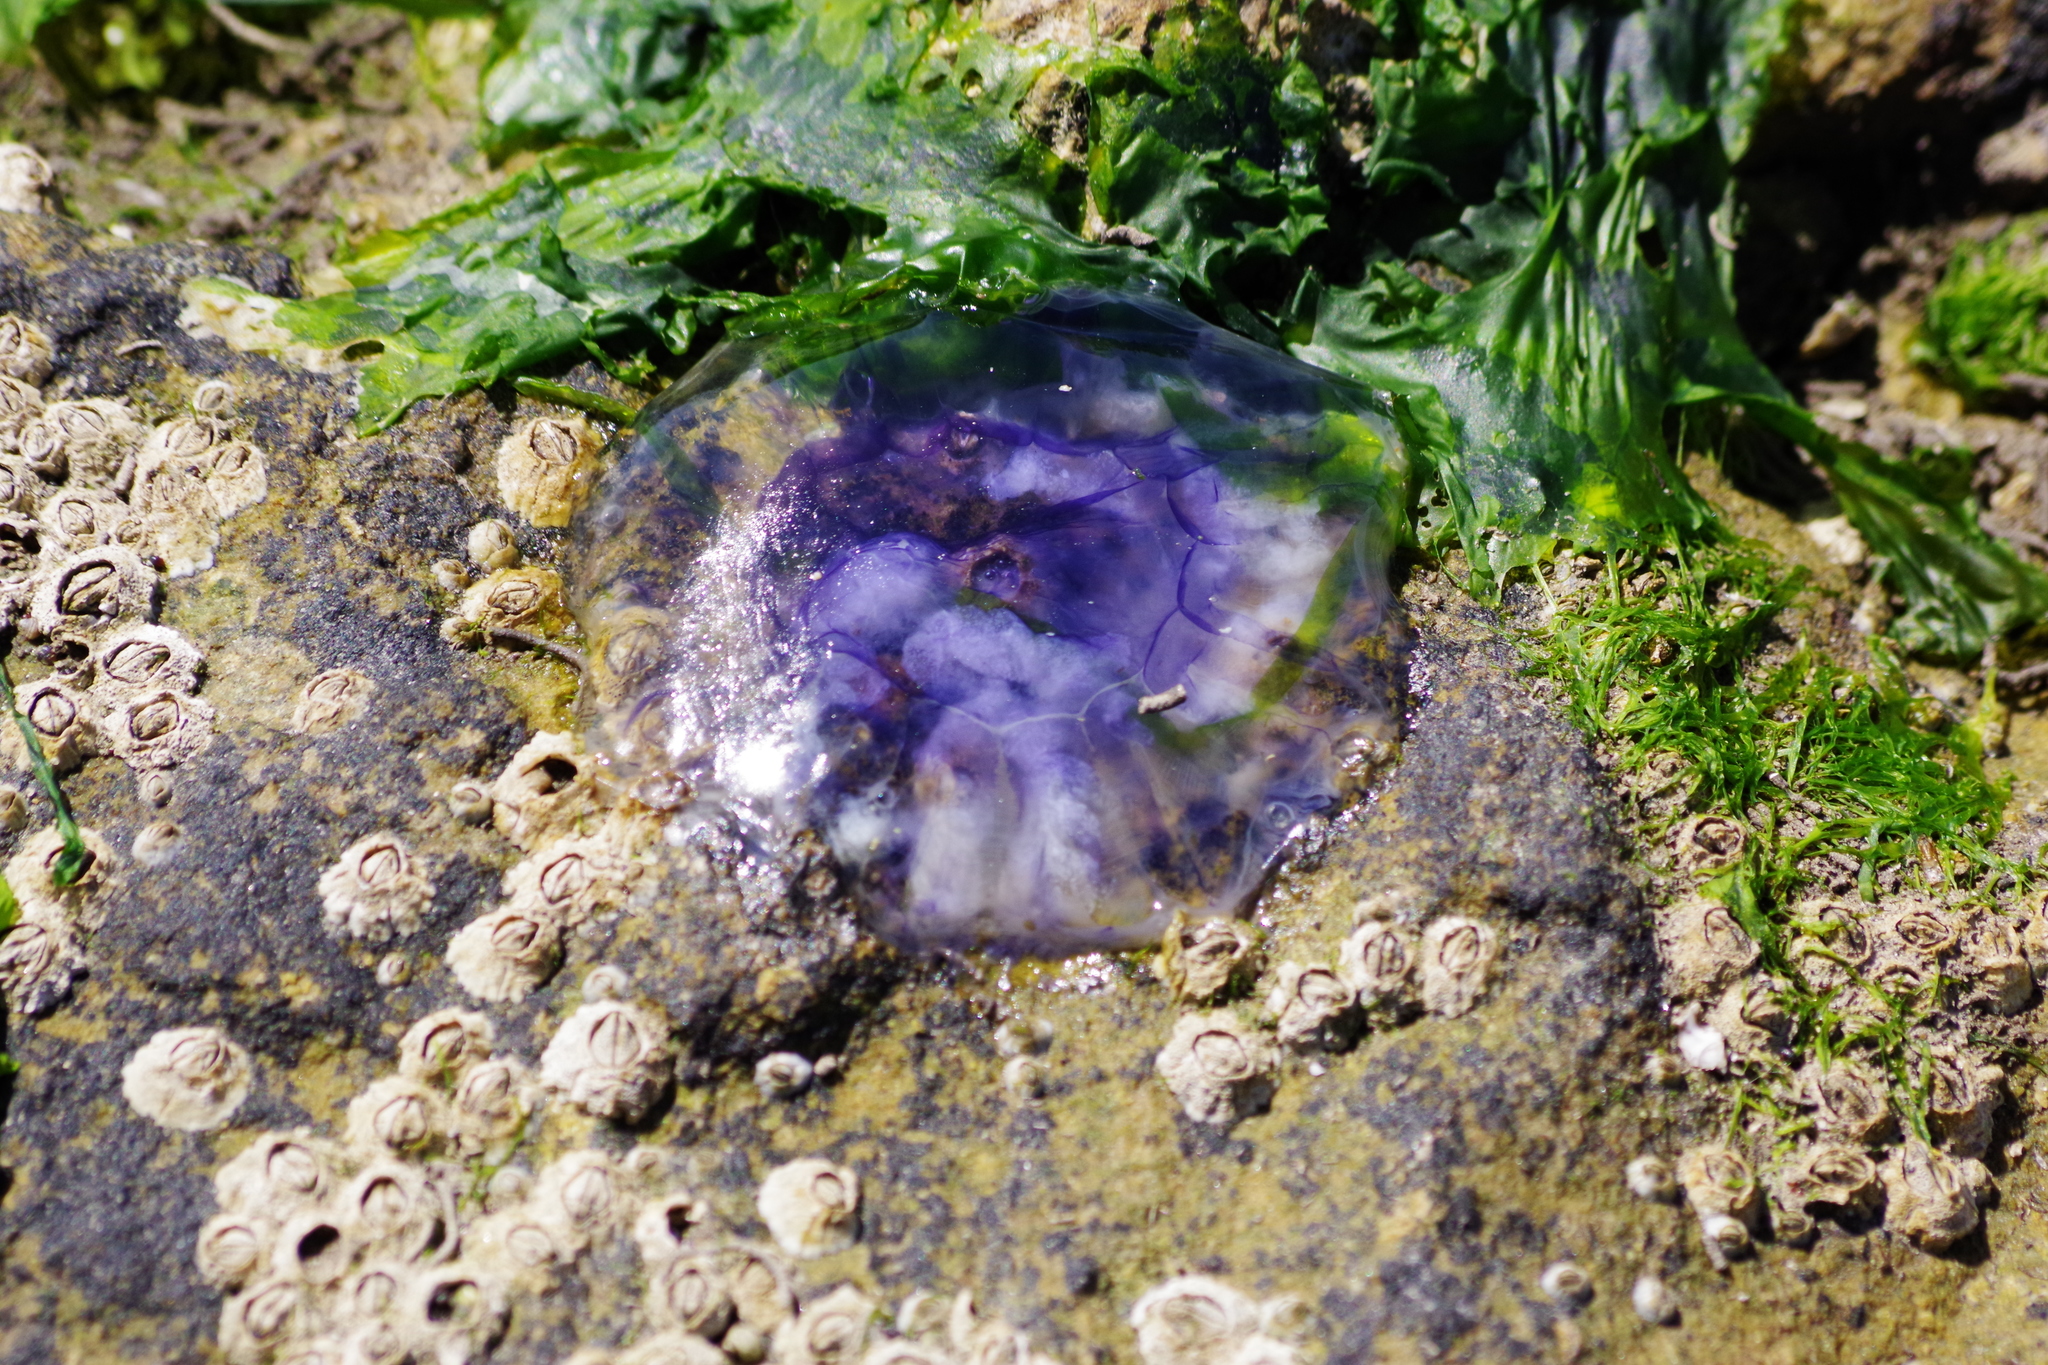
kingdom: Animalia
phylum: Cnidaria
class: Scyphozoa
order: Semaeostomeae
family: Cyaneidae
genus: Cyanea
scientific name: Cyanea lamarckii
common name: Blue jellyfish
